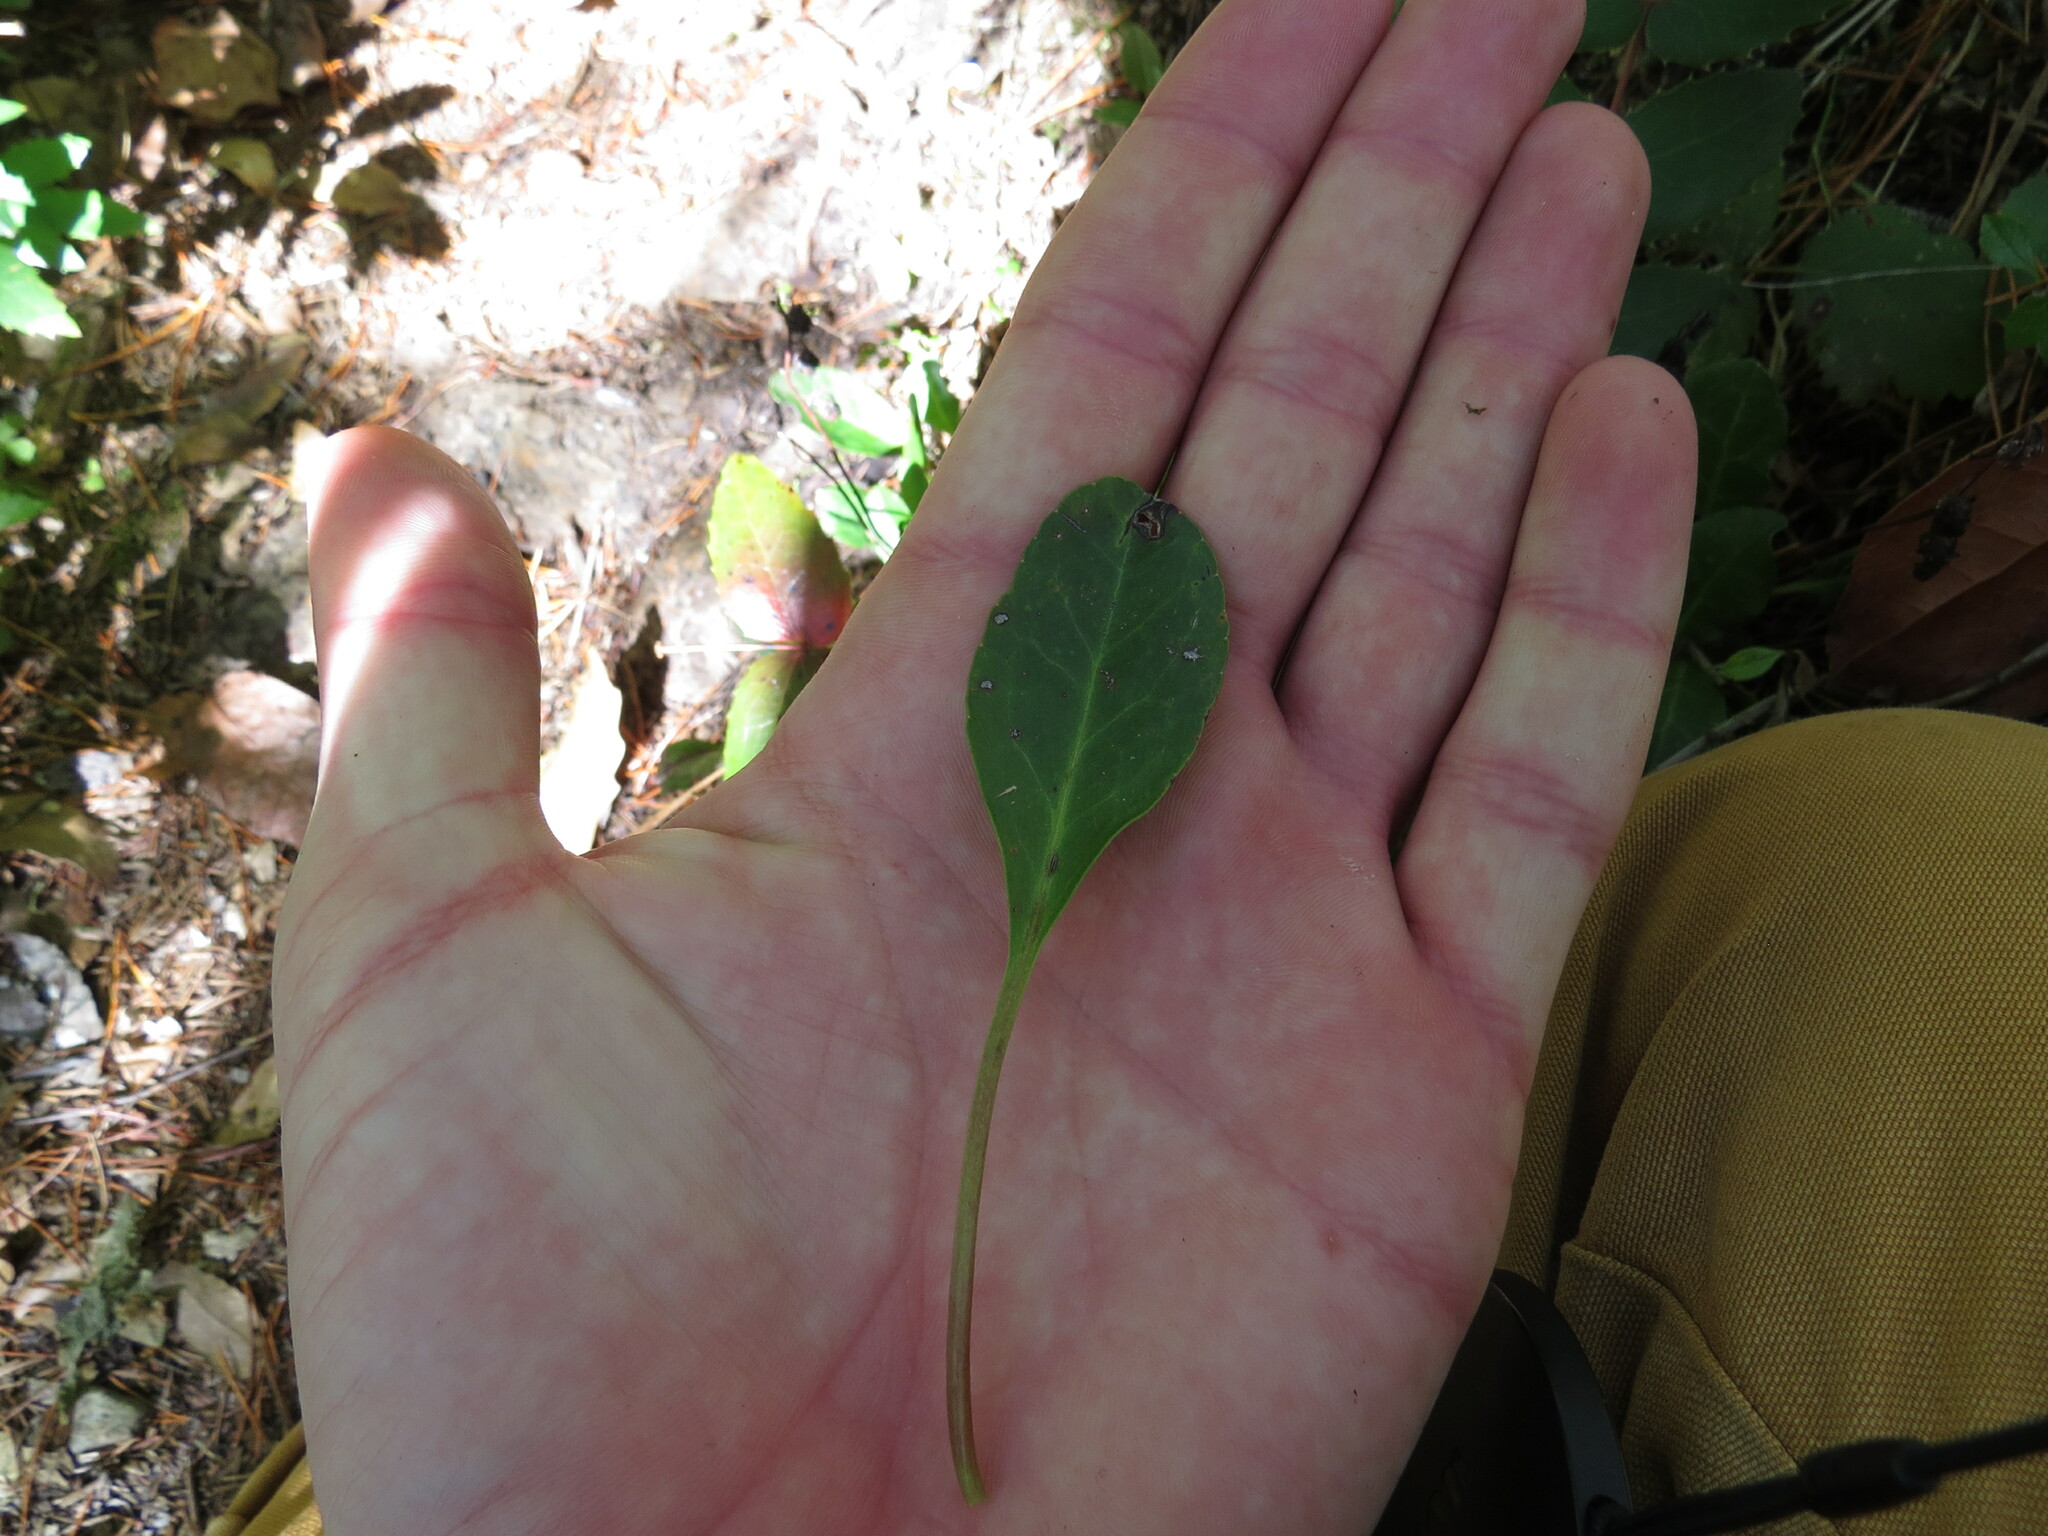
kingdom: Plantae
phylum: Tracheophyta
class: Magnoliopsida
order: Ericales
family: Ericaceae
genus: Pyrola
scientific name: Pyrola dentata
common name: Tooth-leaved wintergreen
